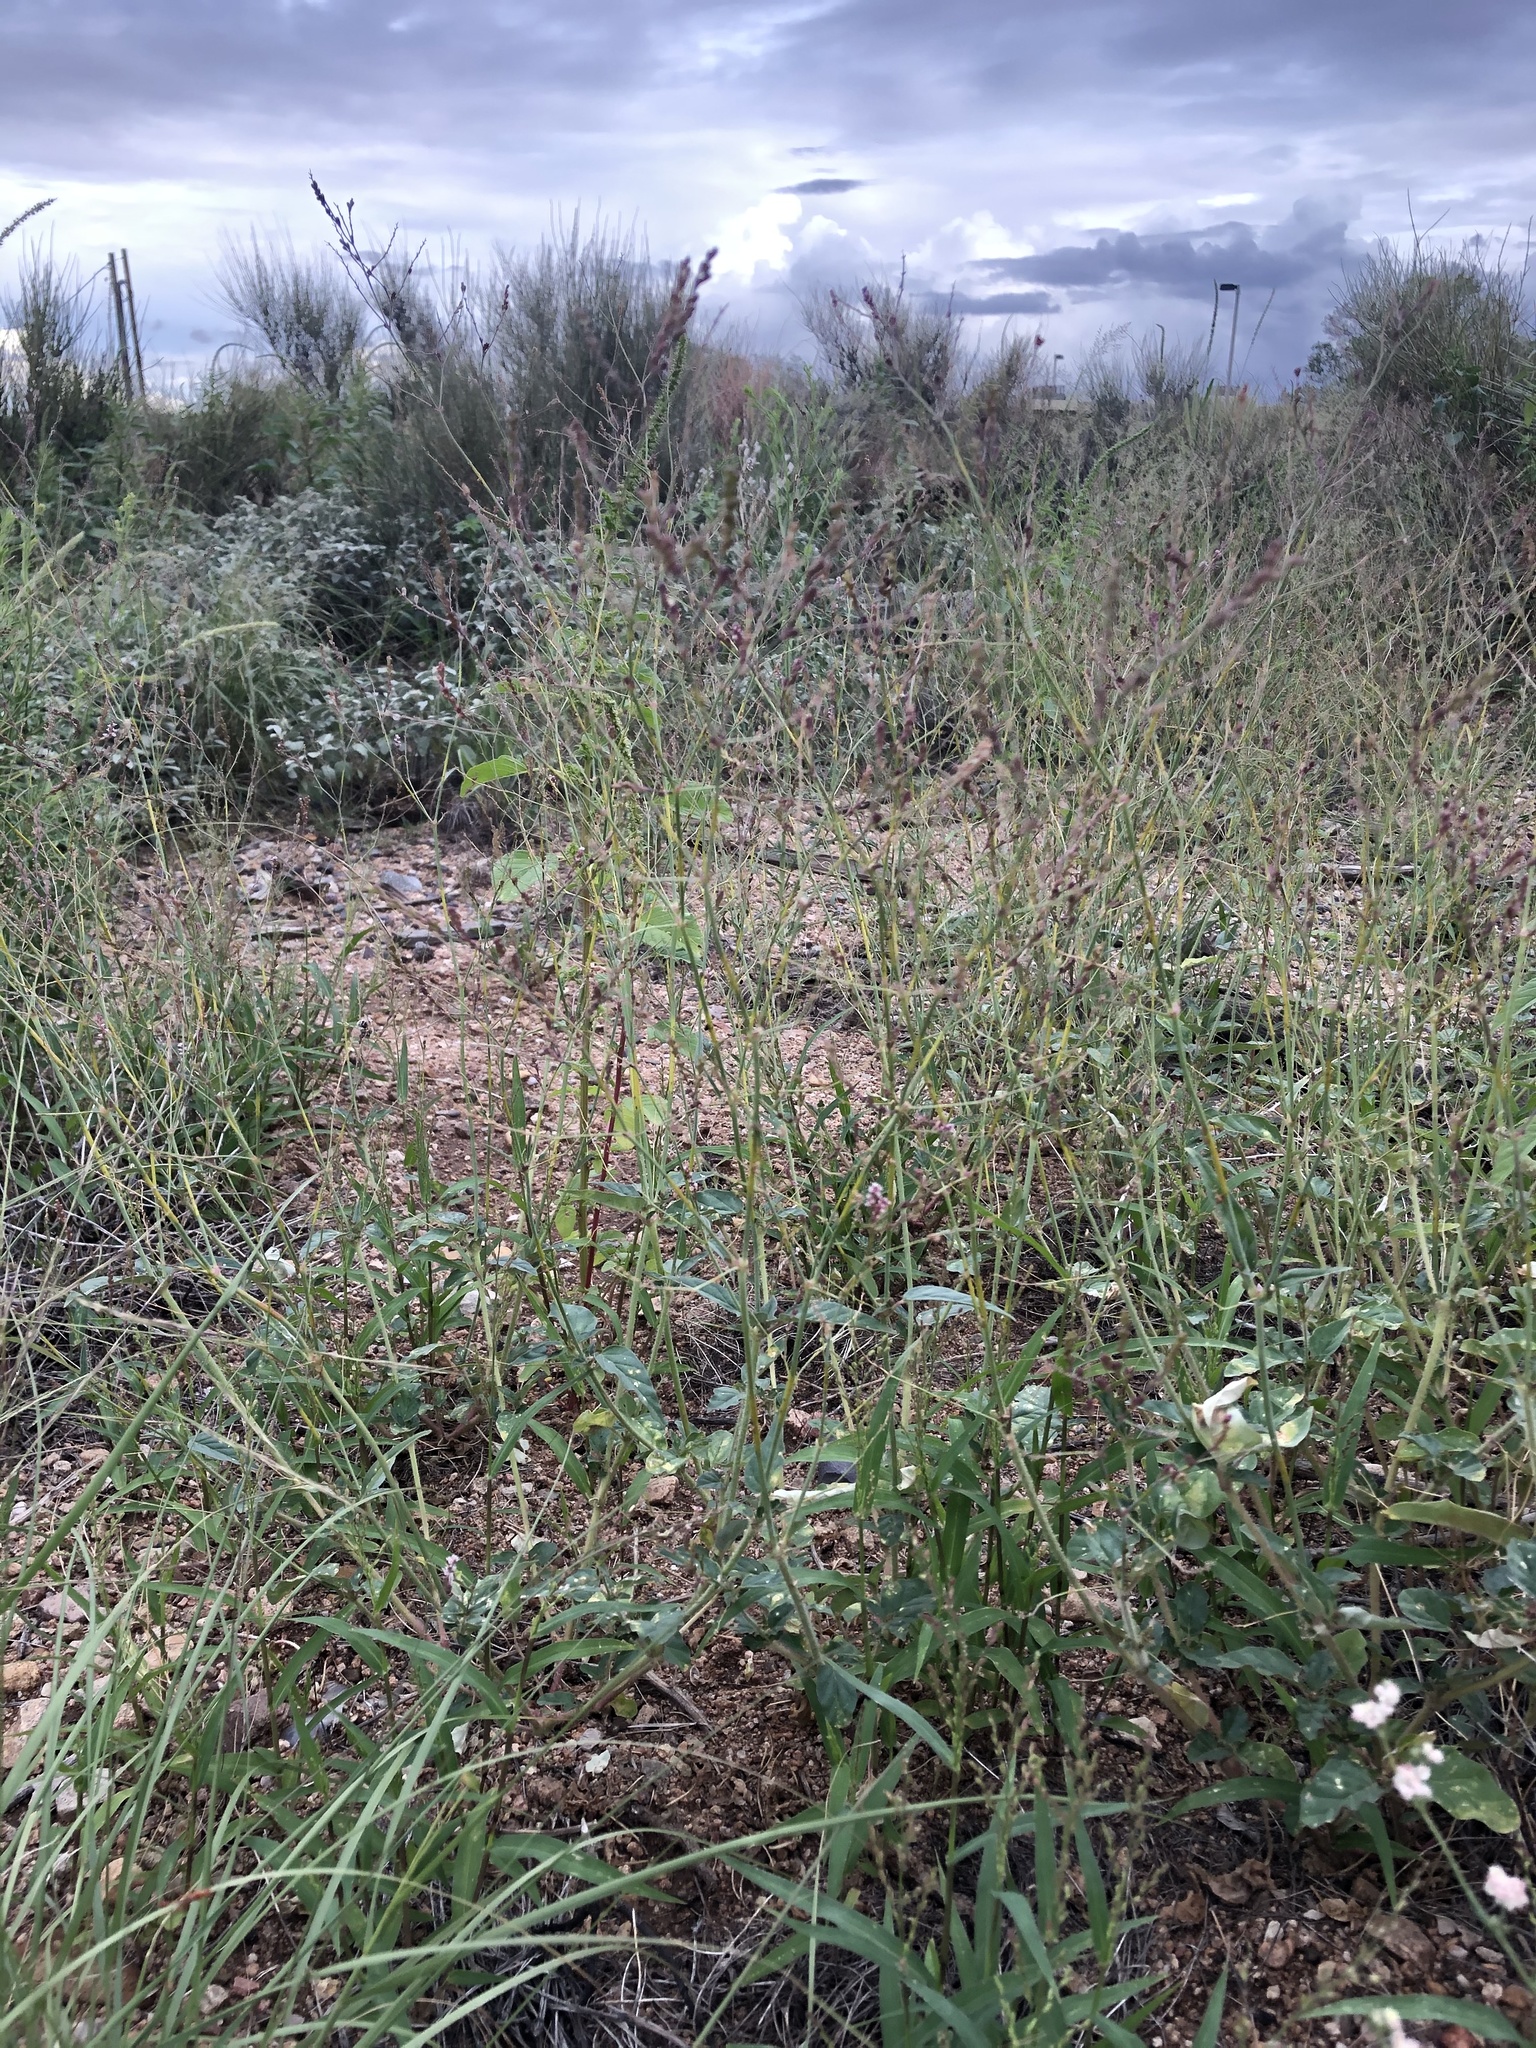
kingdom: Plantae
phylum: Tracheophyta
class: Magnoliopsida
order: Caryophyllales
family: Nyctaginaceae
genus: Boerhavia
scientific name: Boerhavia coulteri
